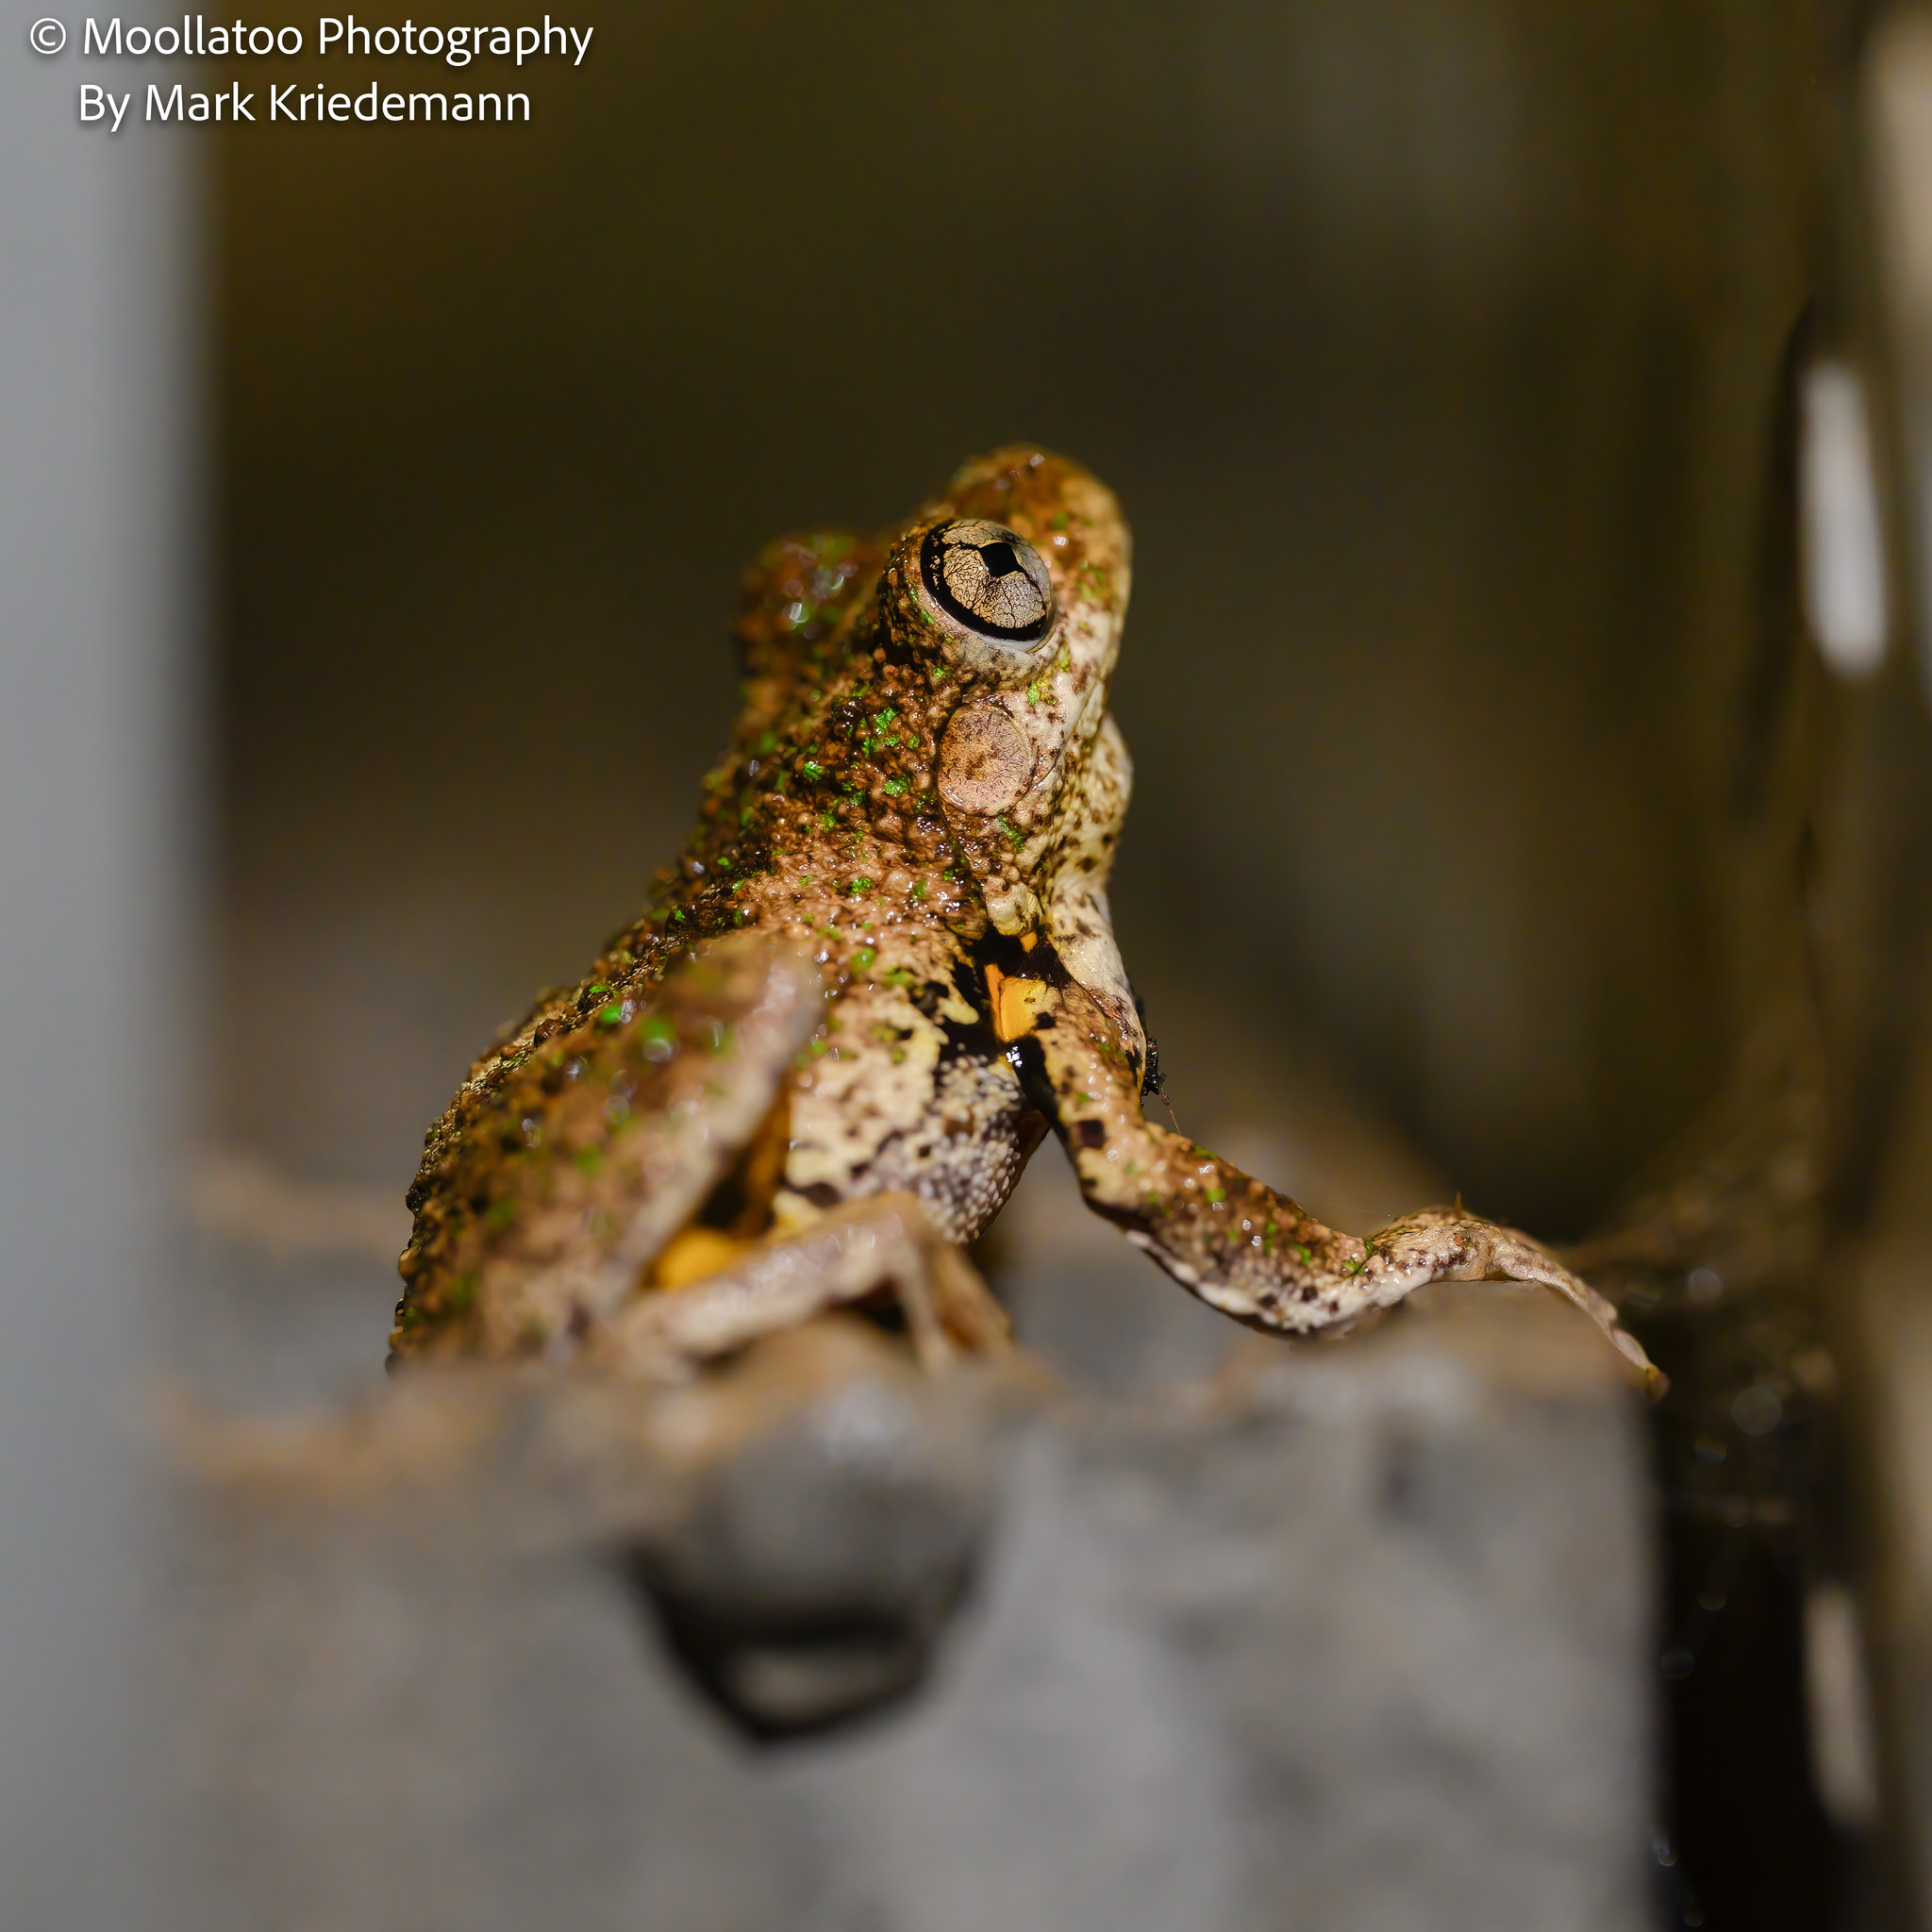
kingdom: Animalia
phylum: Chordata
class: Amphibia
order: Anura
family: Pelodryadidae
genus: Litoria
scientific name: Litoria peronii
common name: Emerald spotted treefrog
